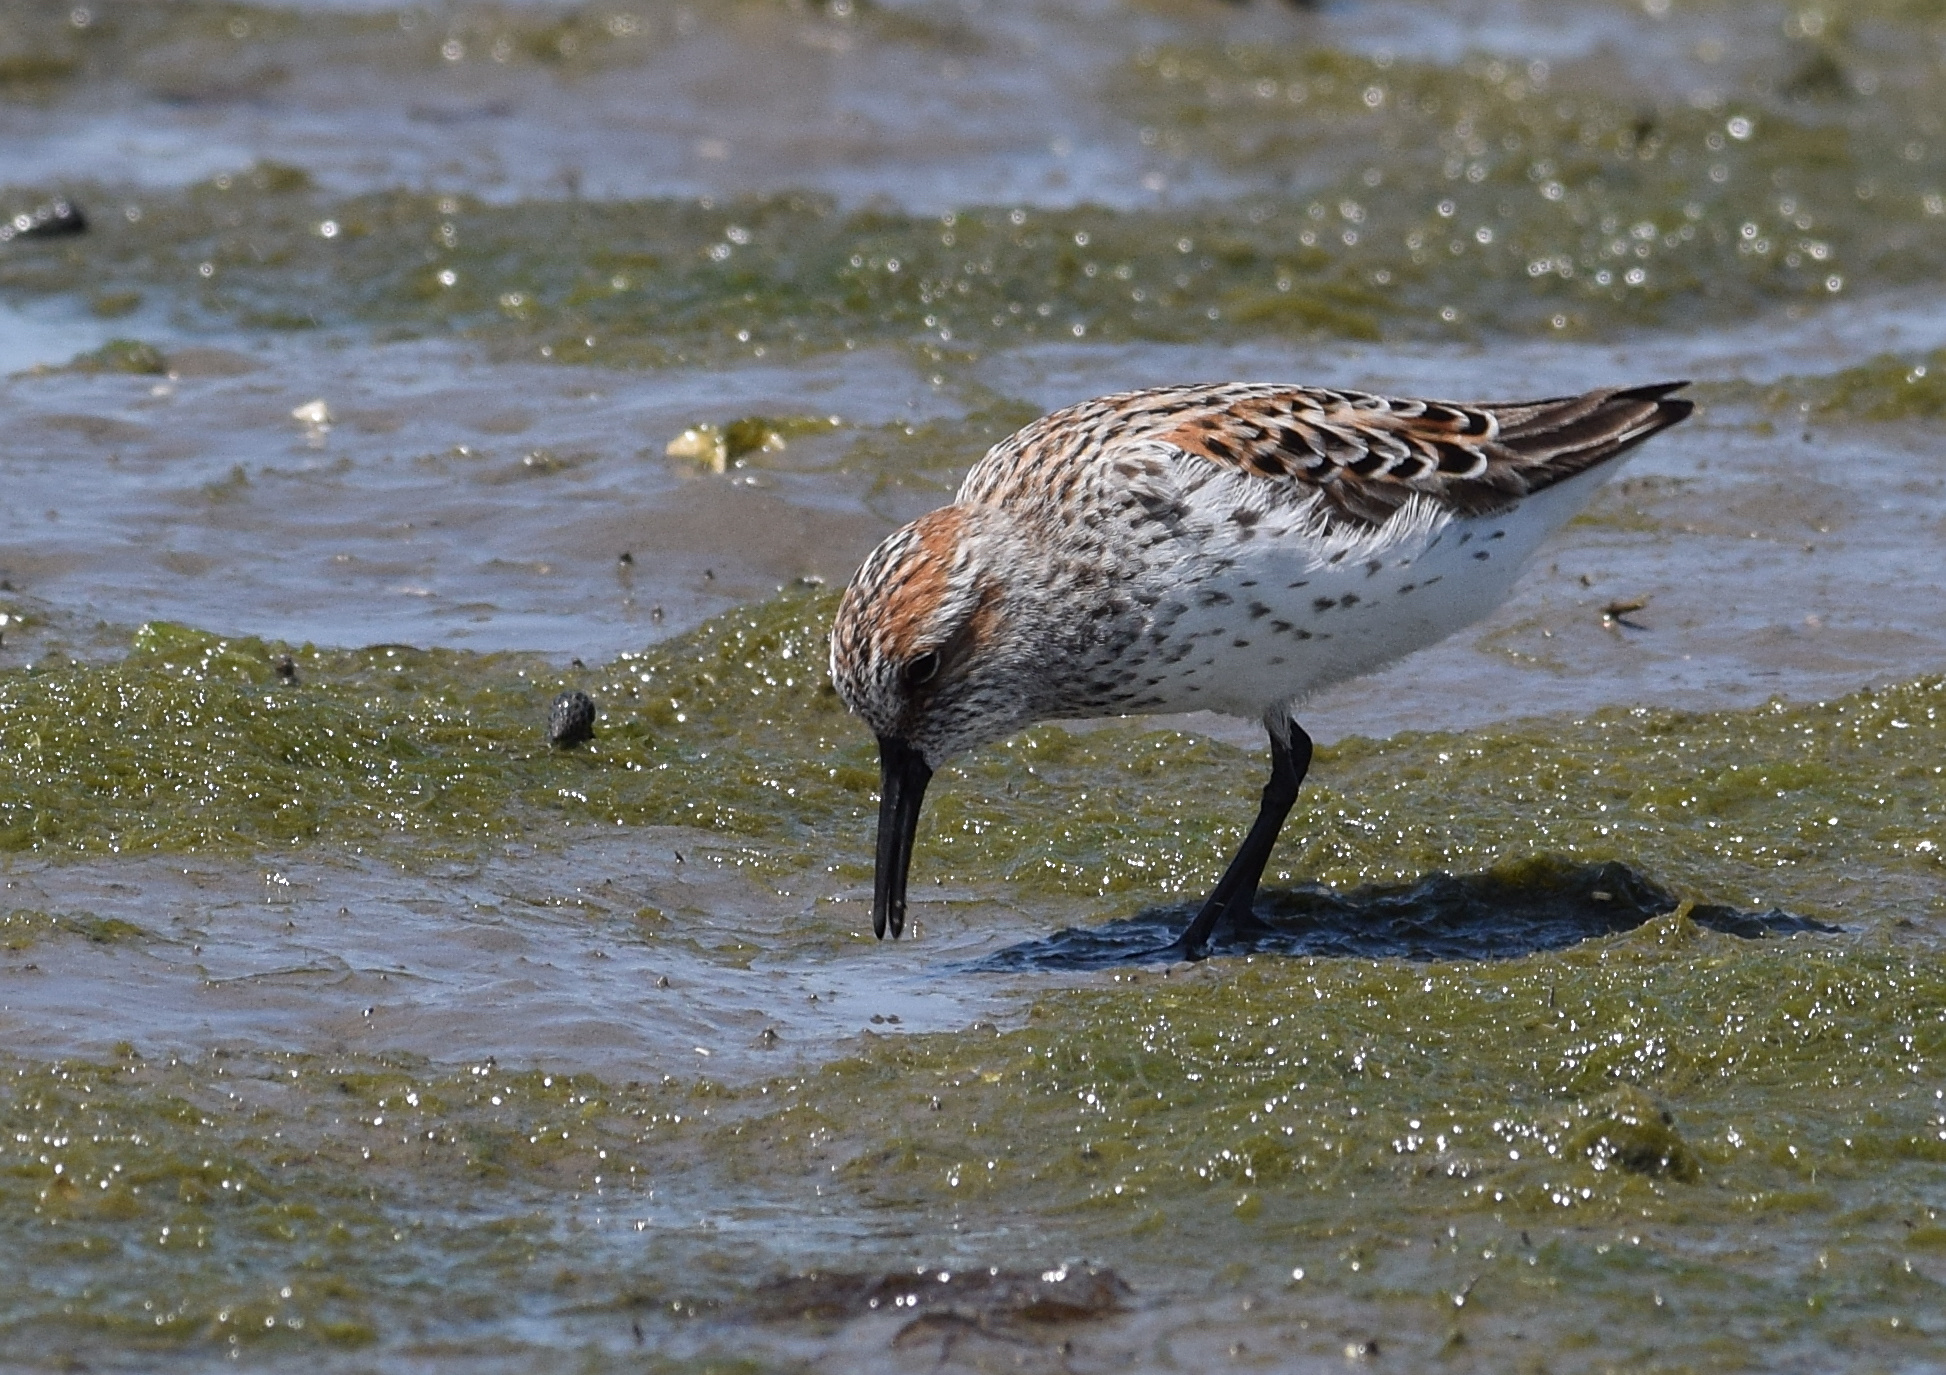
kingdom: Animalia
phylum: Chordata
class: Aves
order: Charadriiformes
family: Scolopacidae
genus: Calidris
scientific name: Calidris mauri
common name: Western sandpiper
